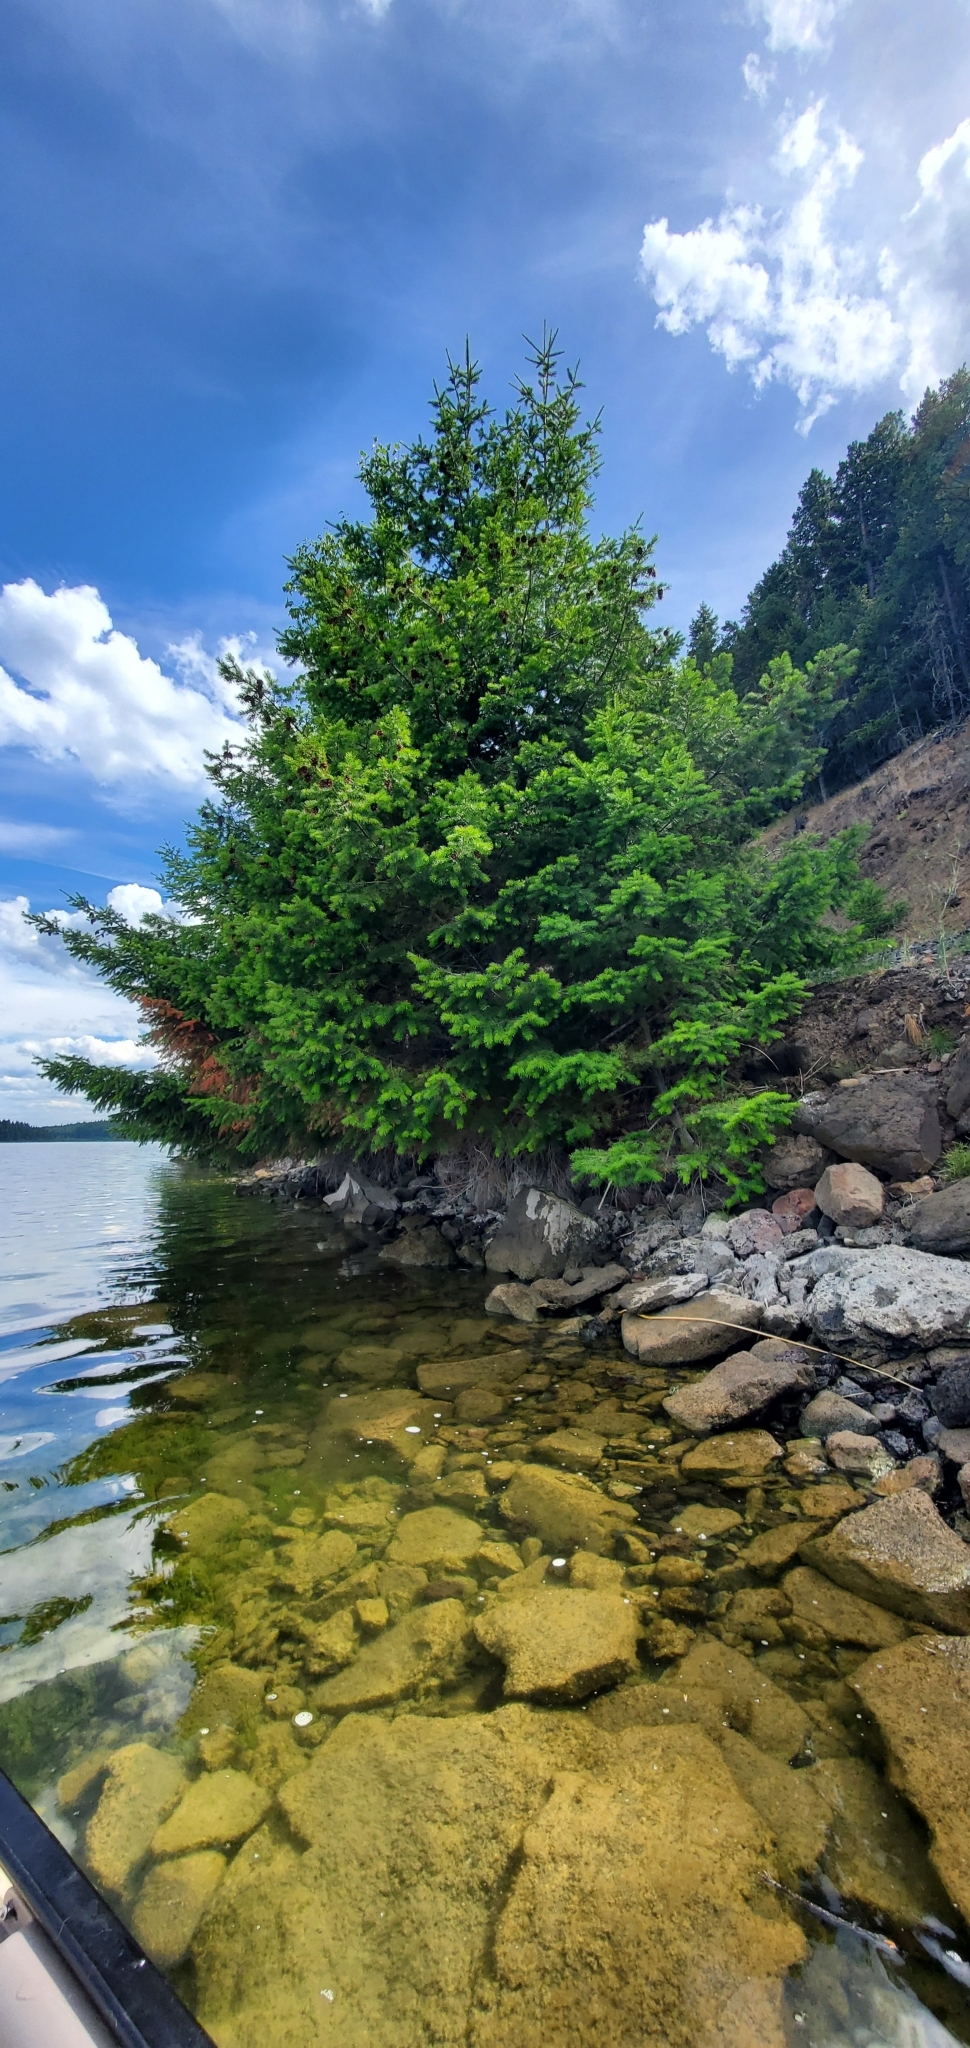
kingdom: Plantae
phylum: Tracheophyta
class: Pinopsida
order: Pinales
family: Pinaceae
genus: Pseudotsuga
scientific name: Pseudotsuga menziesii
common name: Douglas fir
